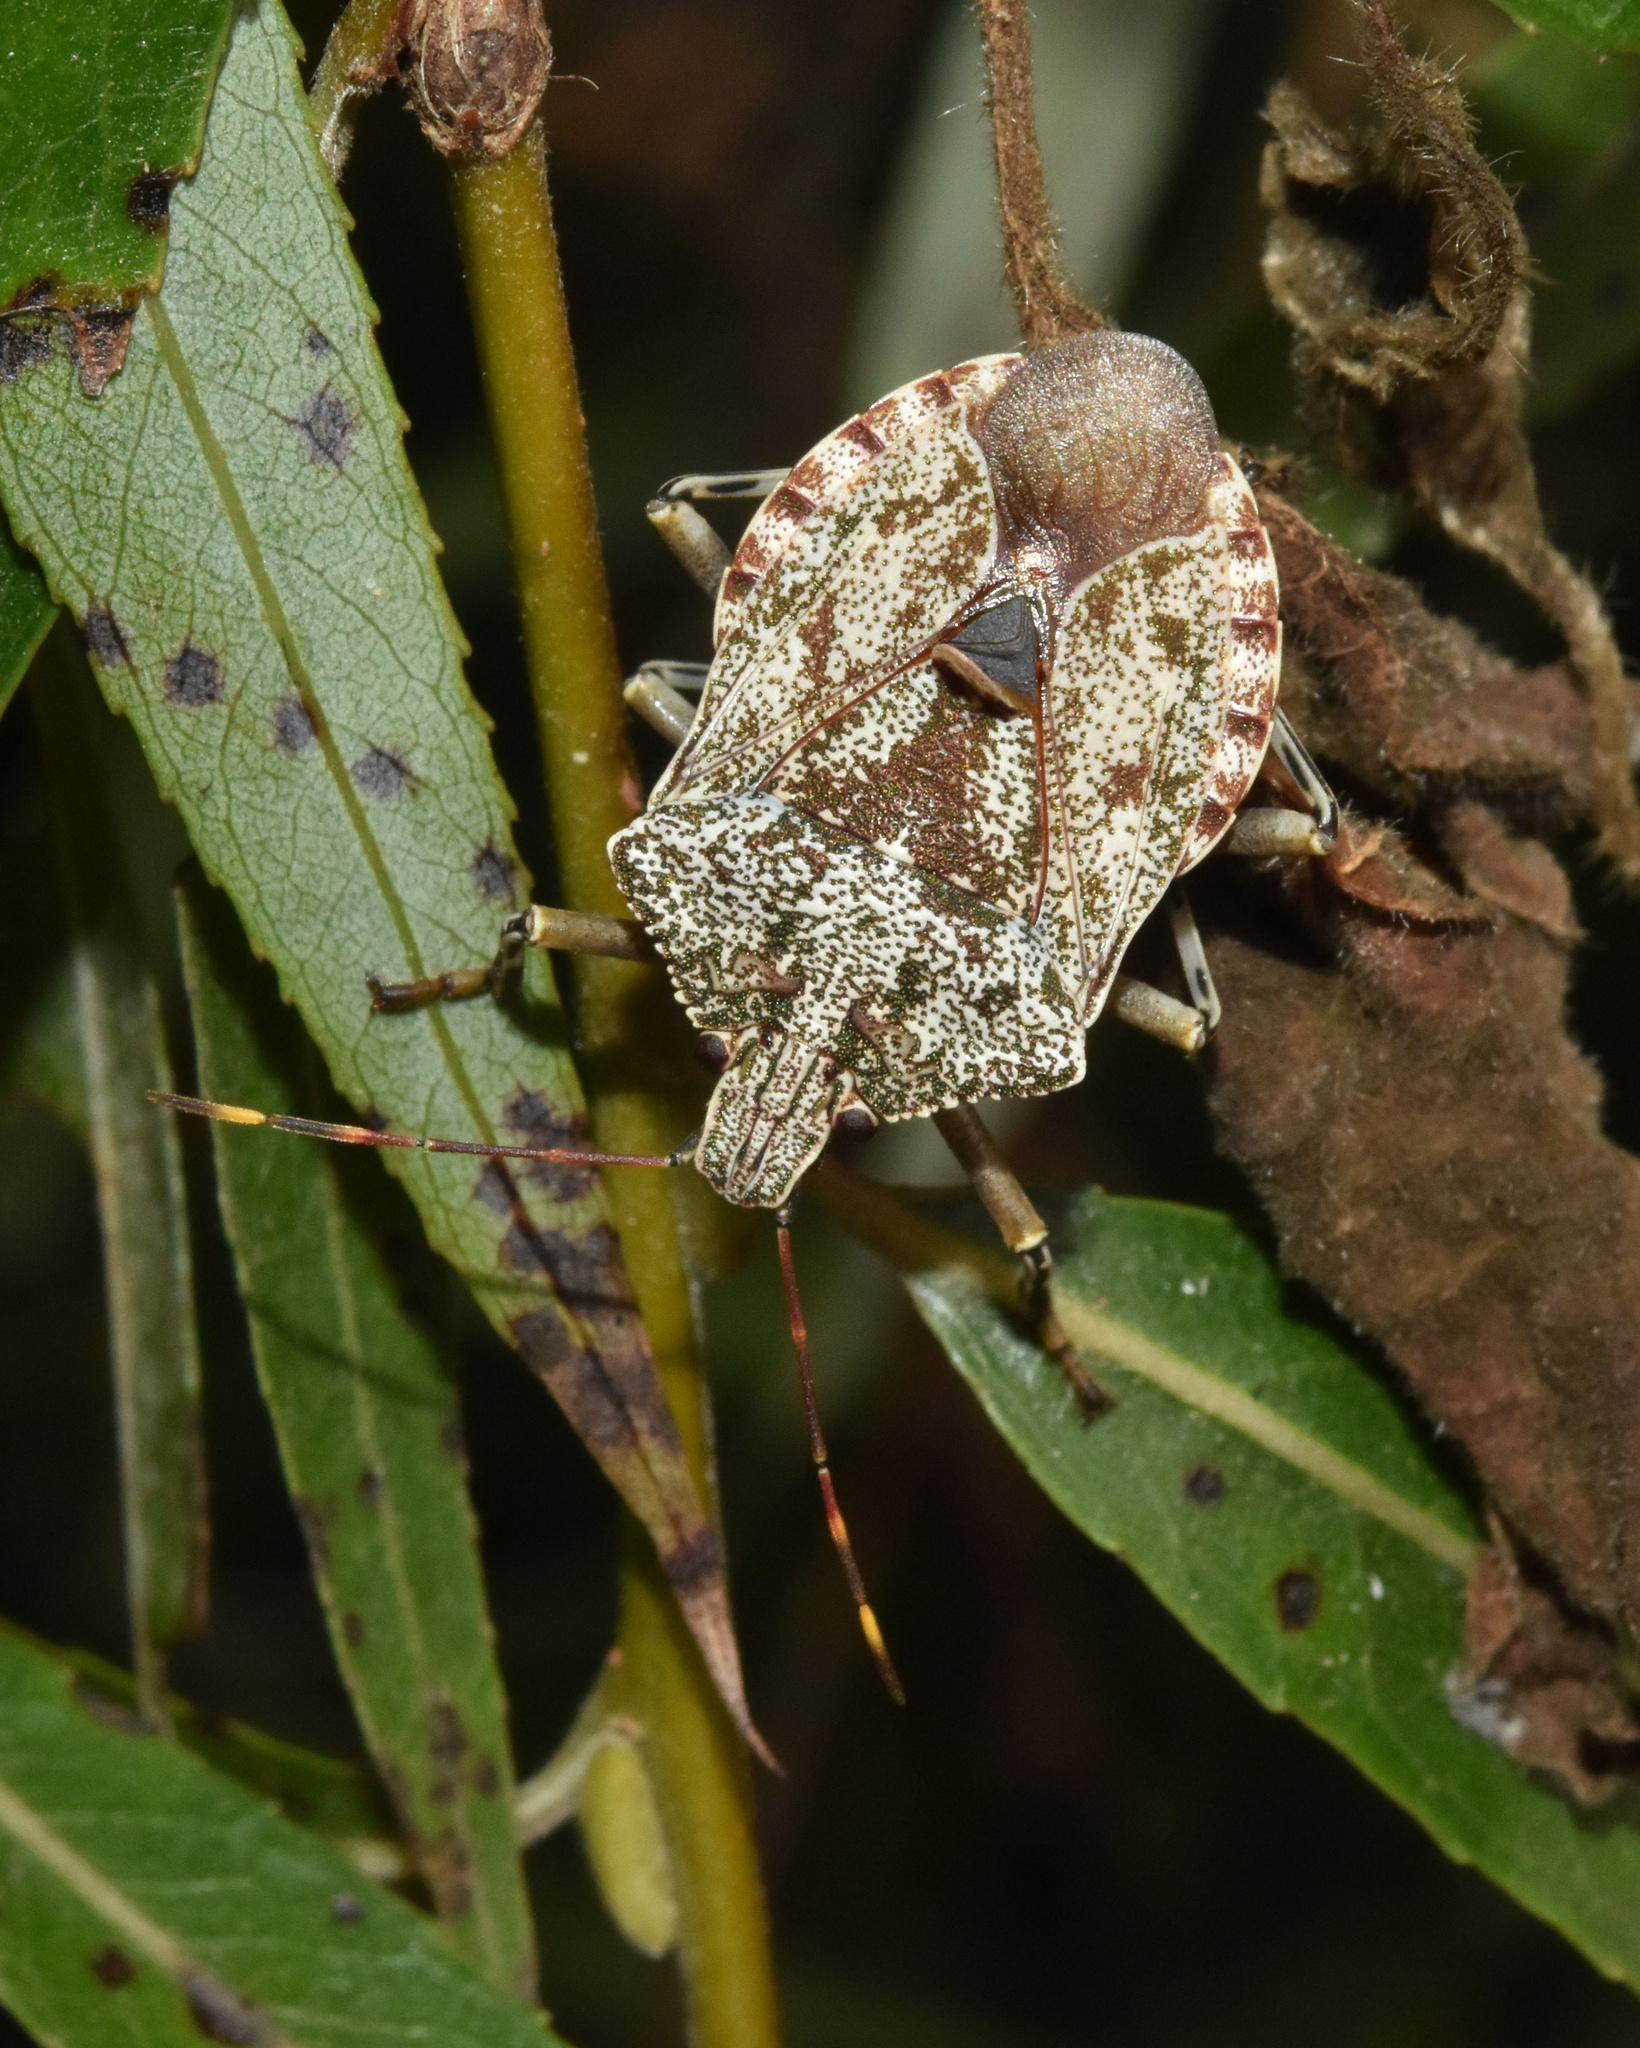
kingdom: Animalia
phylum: Arthropoda
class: Insecta
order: Hemiptera
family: Pentatomidae
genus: Coenomorpha
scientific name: Coenomorpha
